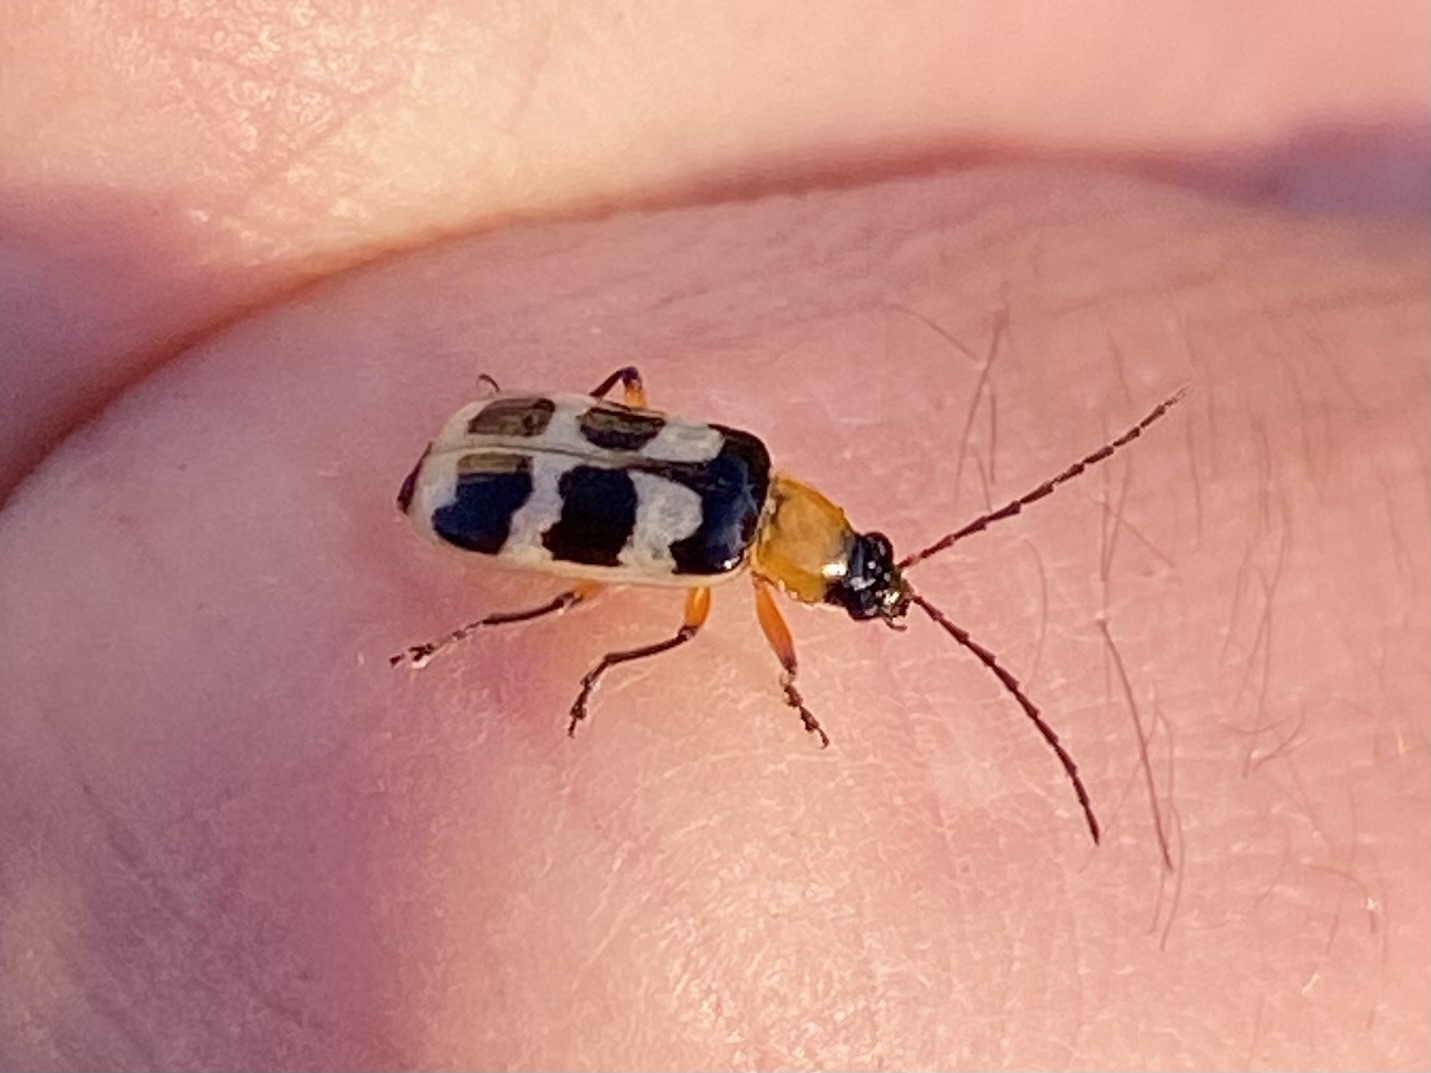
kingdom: Animalia
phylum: Arthropoda
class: Insecta
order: Coleoptera
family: Chrysomelidae
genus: Paranapiacaba
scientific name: Paranapiacaba tricincta
